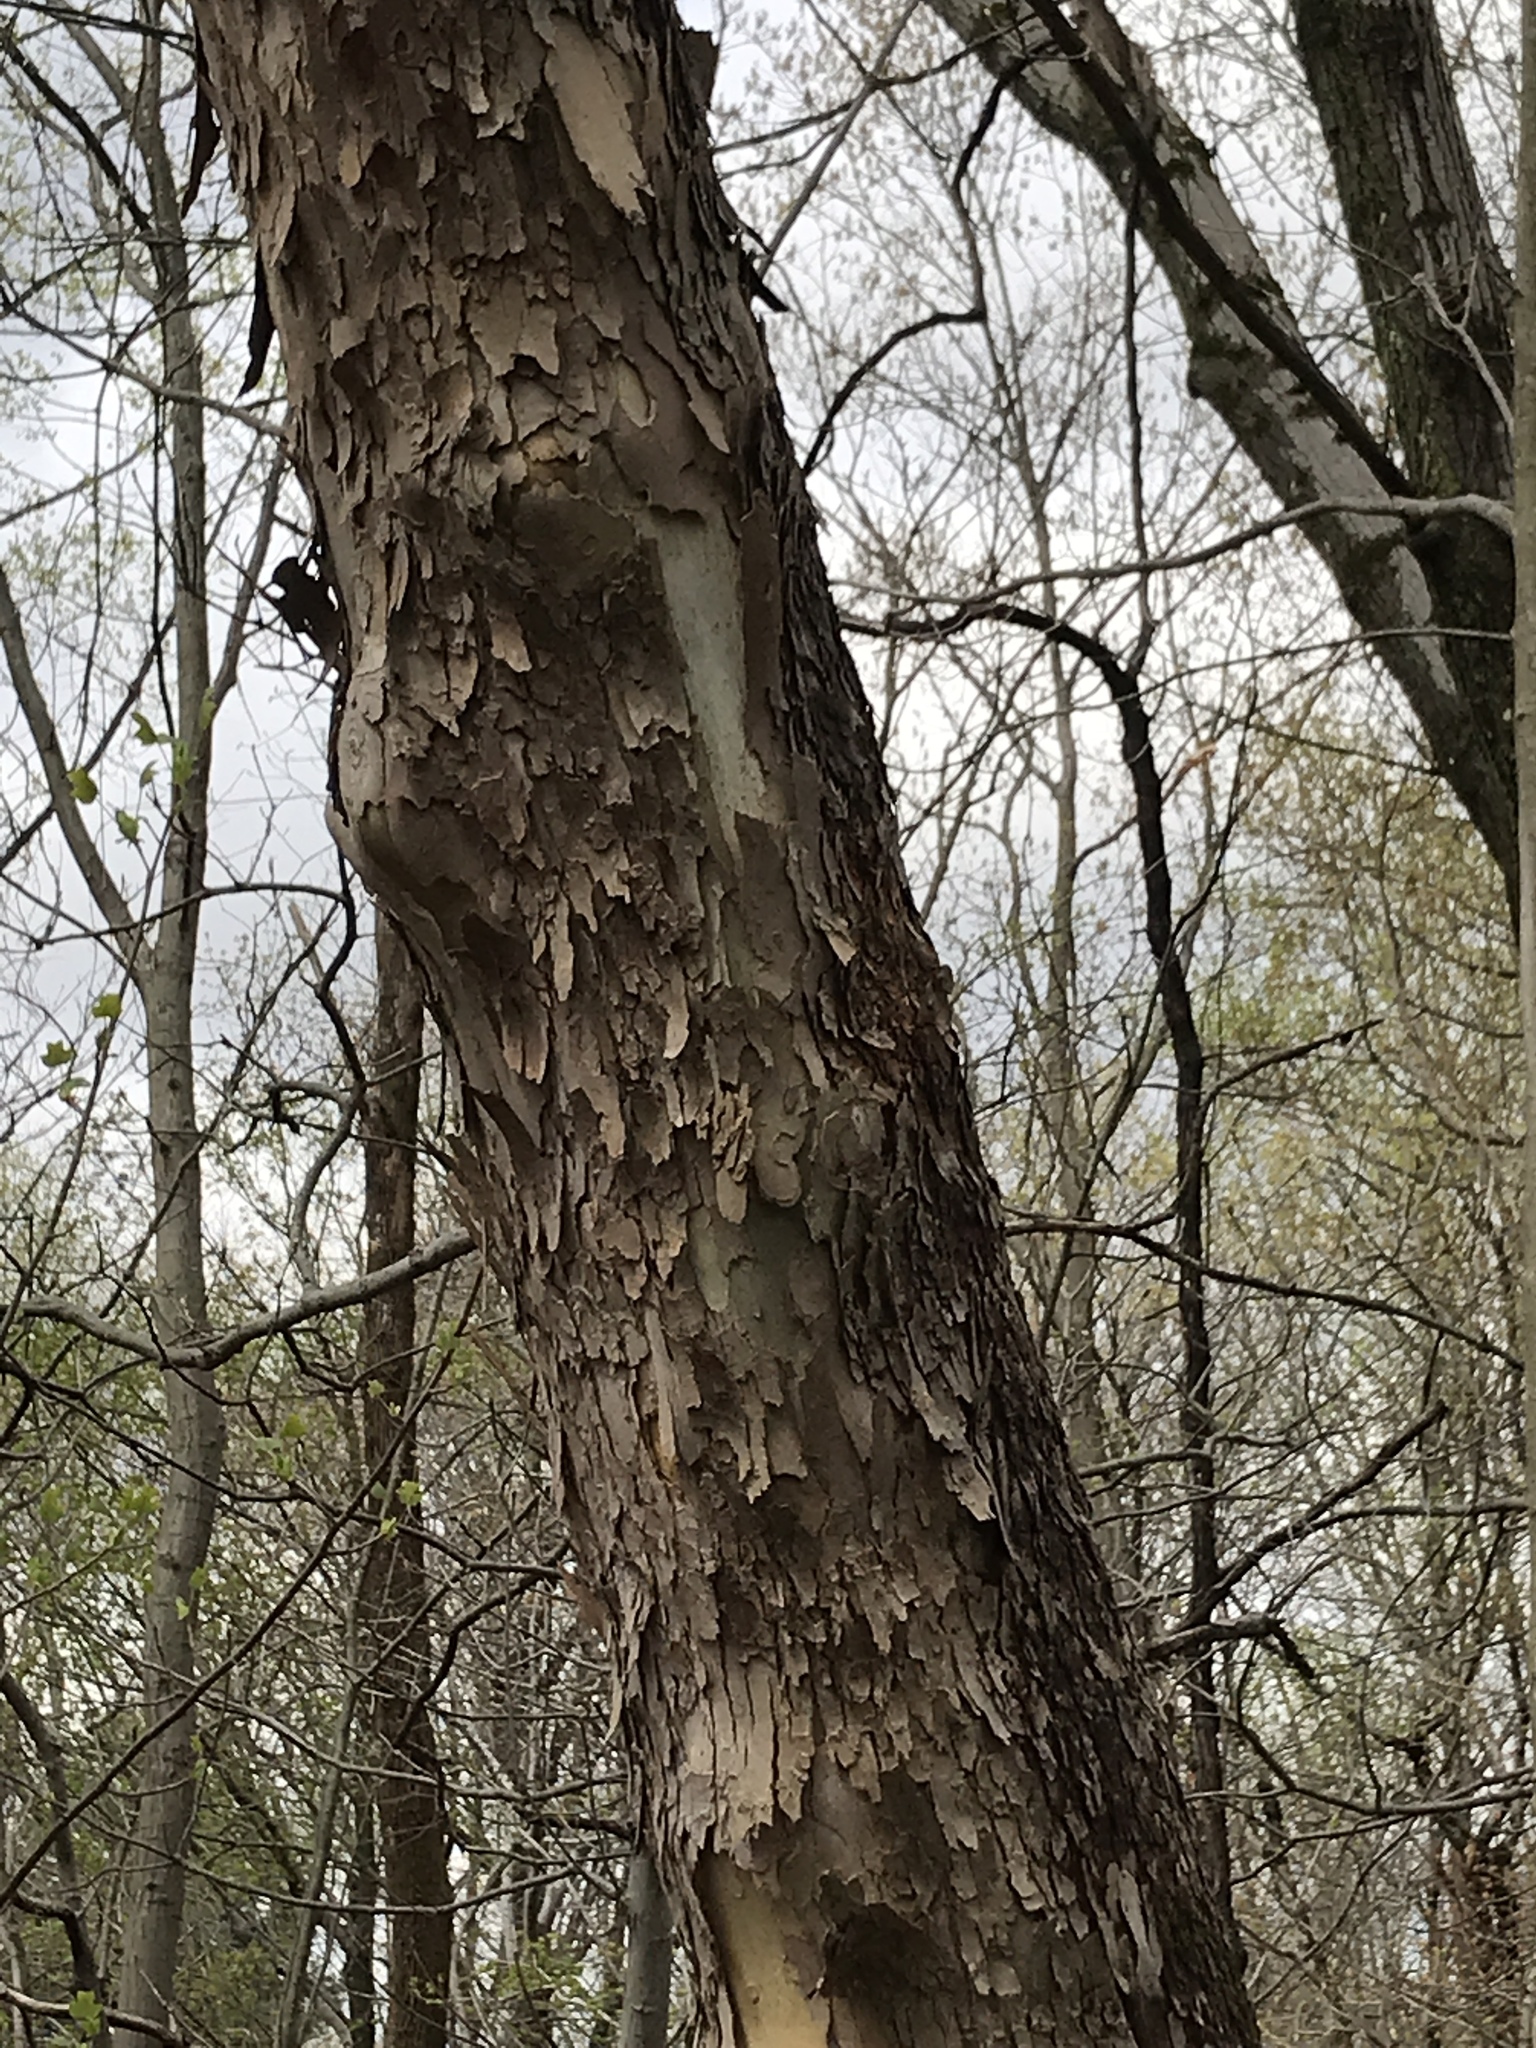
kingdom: Plantae
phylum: Tracheophyta
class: Magnoliopsida
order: Proteales
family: Platanaceae
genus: Platanus
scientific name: Platanus occidentalis
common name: American sycamore
